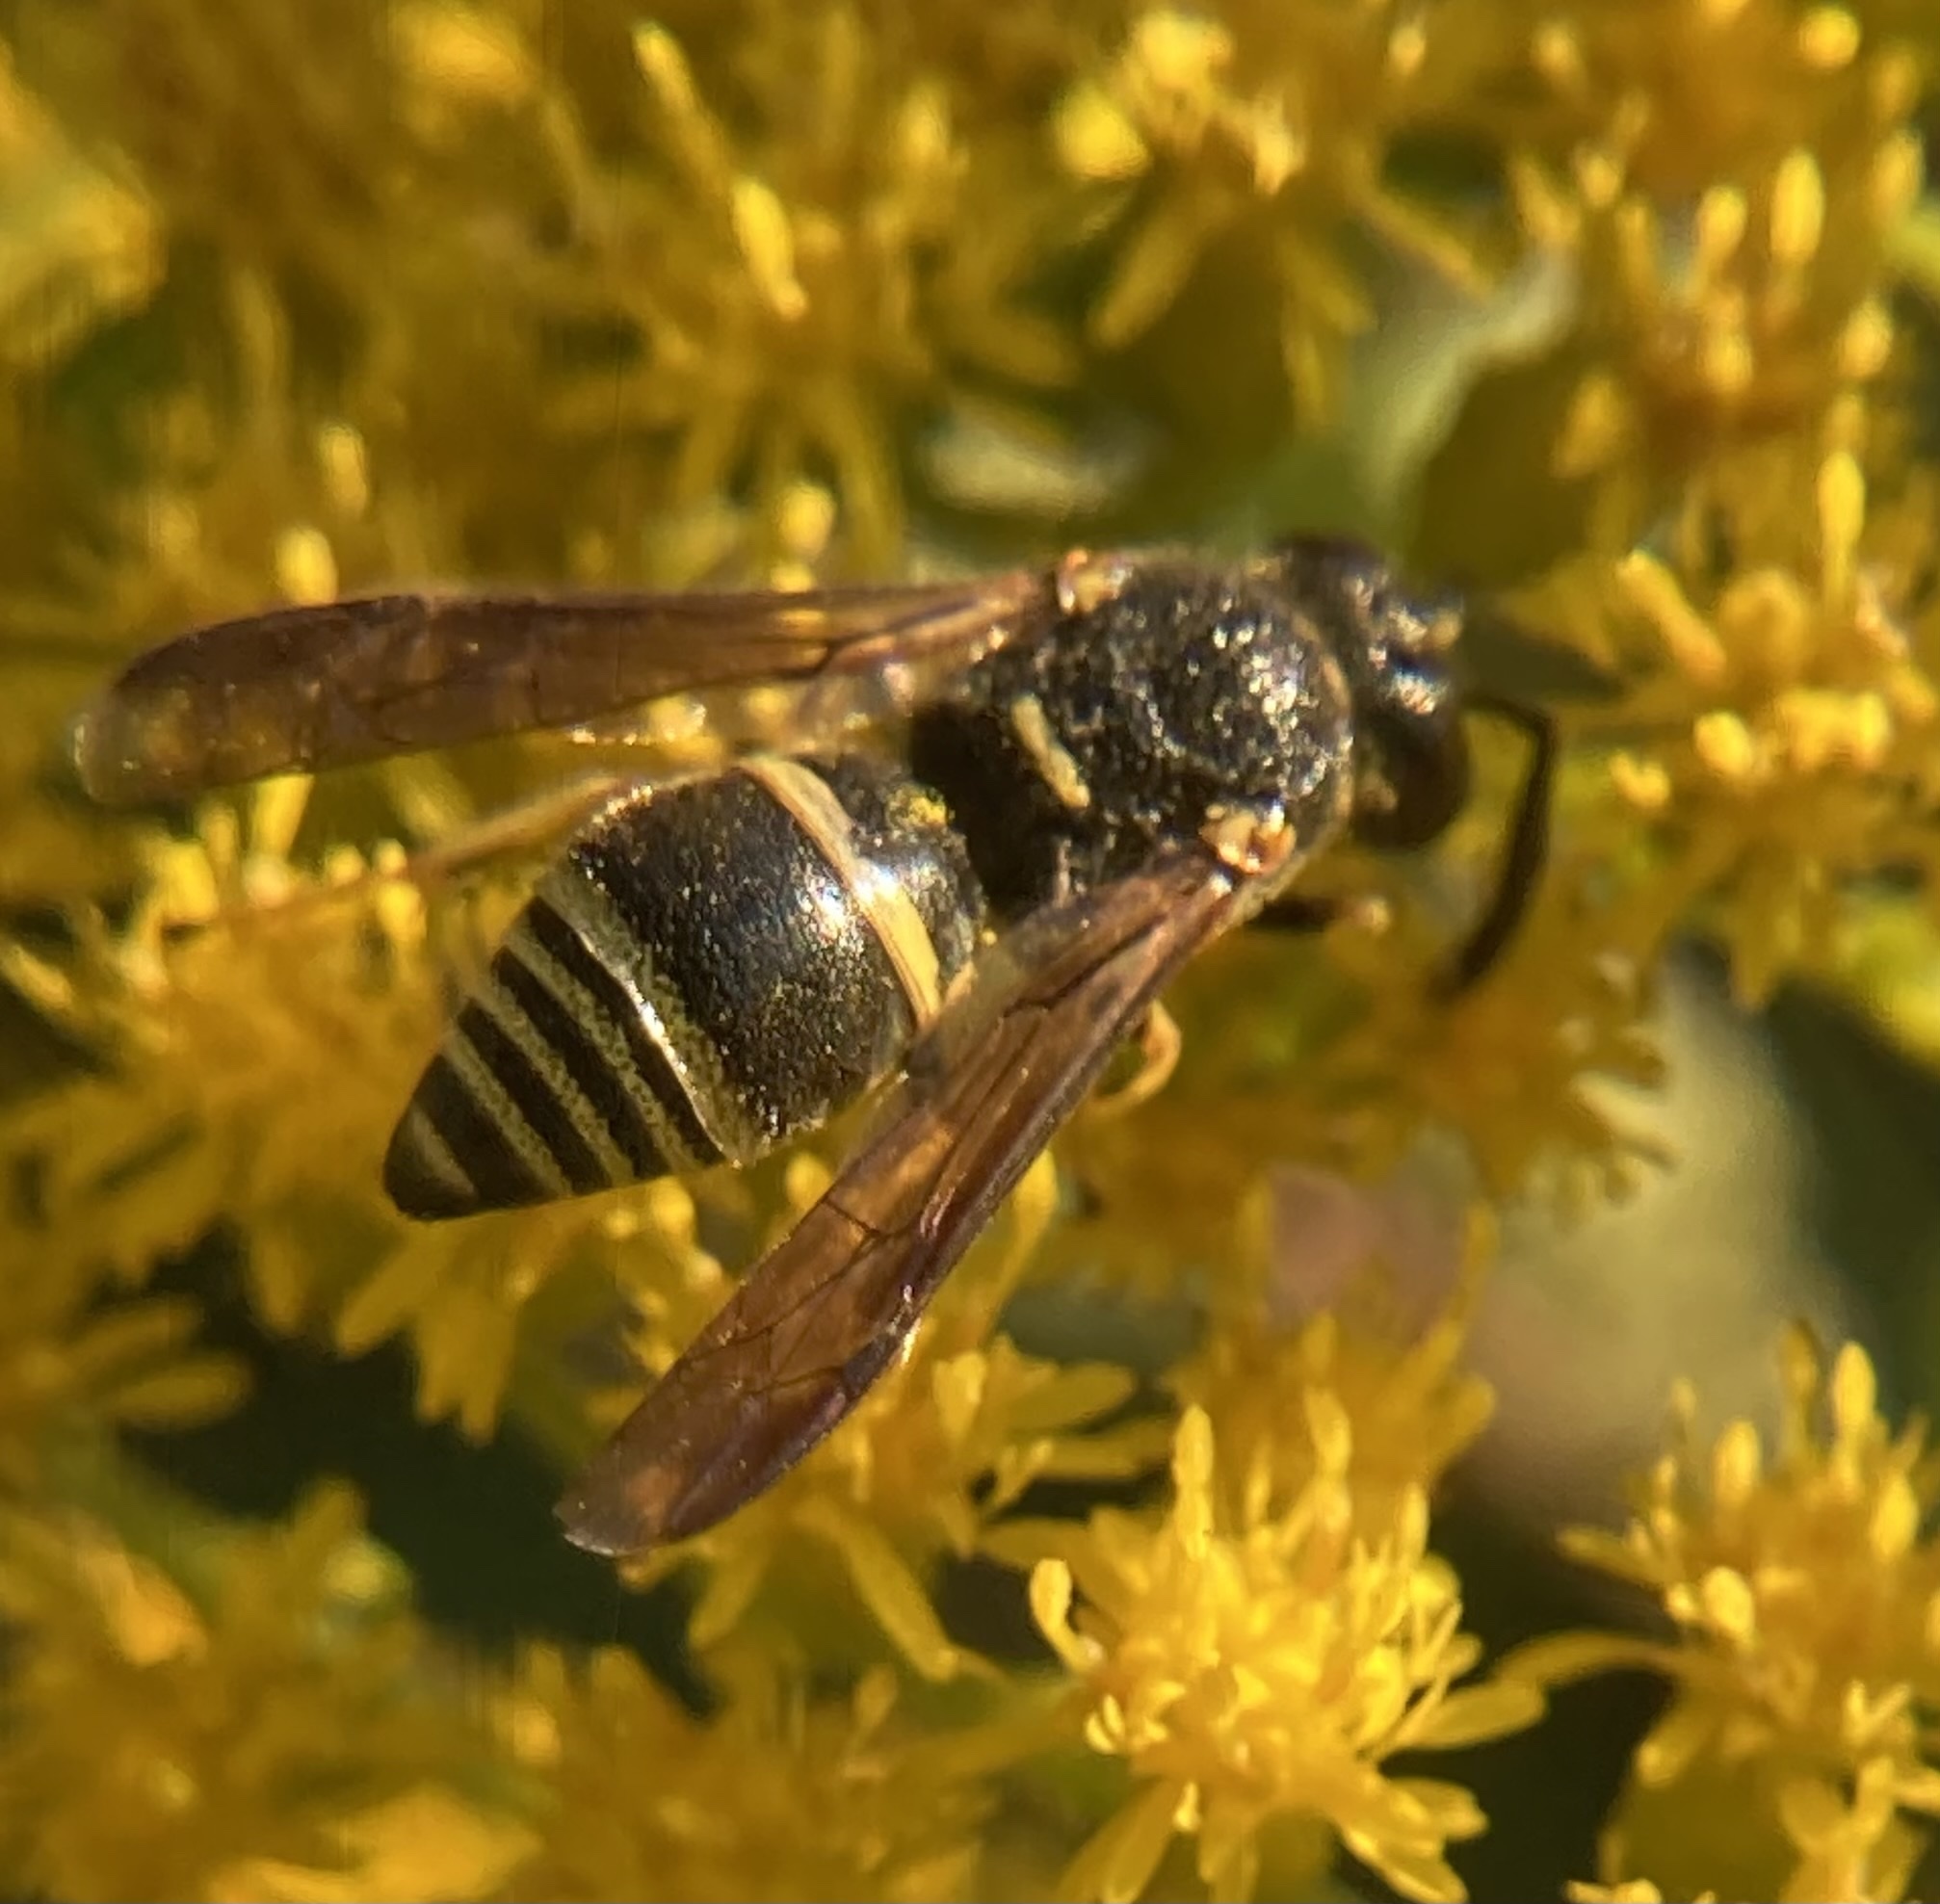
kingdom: Animalia
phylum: Arthropoda
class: Insecta
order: Hymenoptera
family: Eumenidae
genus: Euodynerus
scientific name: Euodynerus foraminatus
